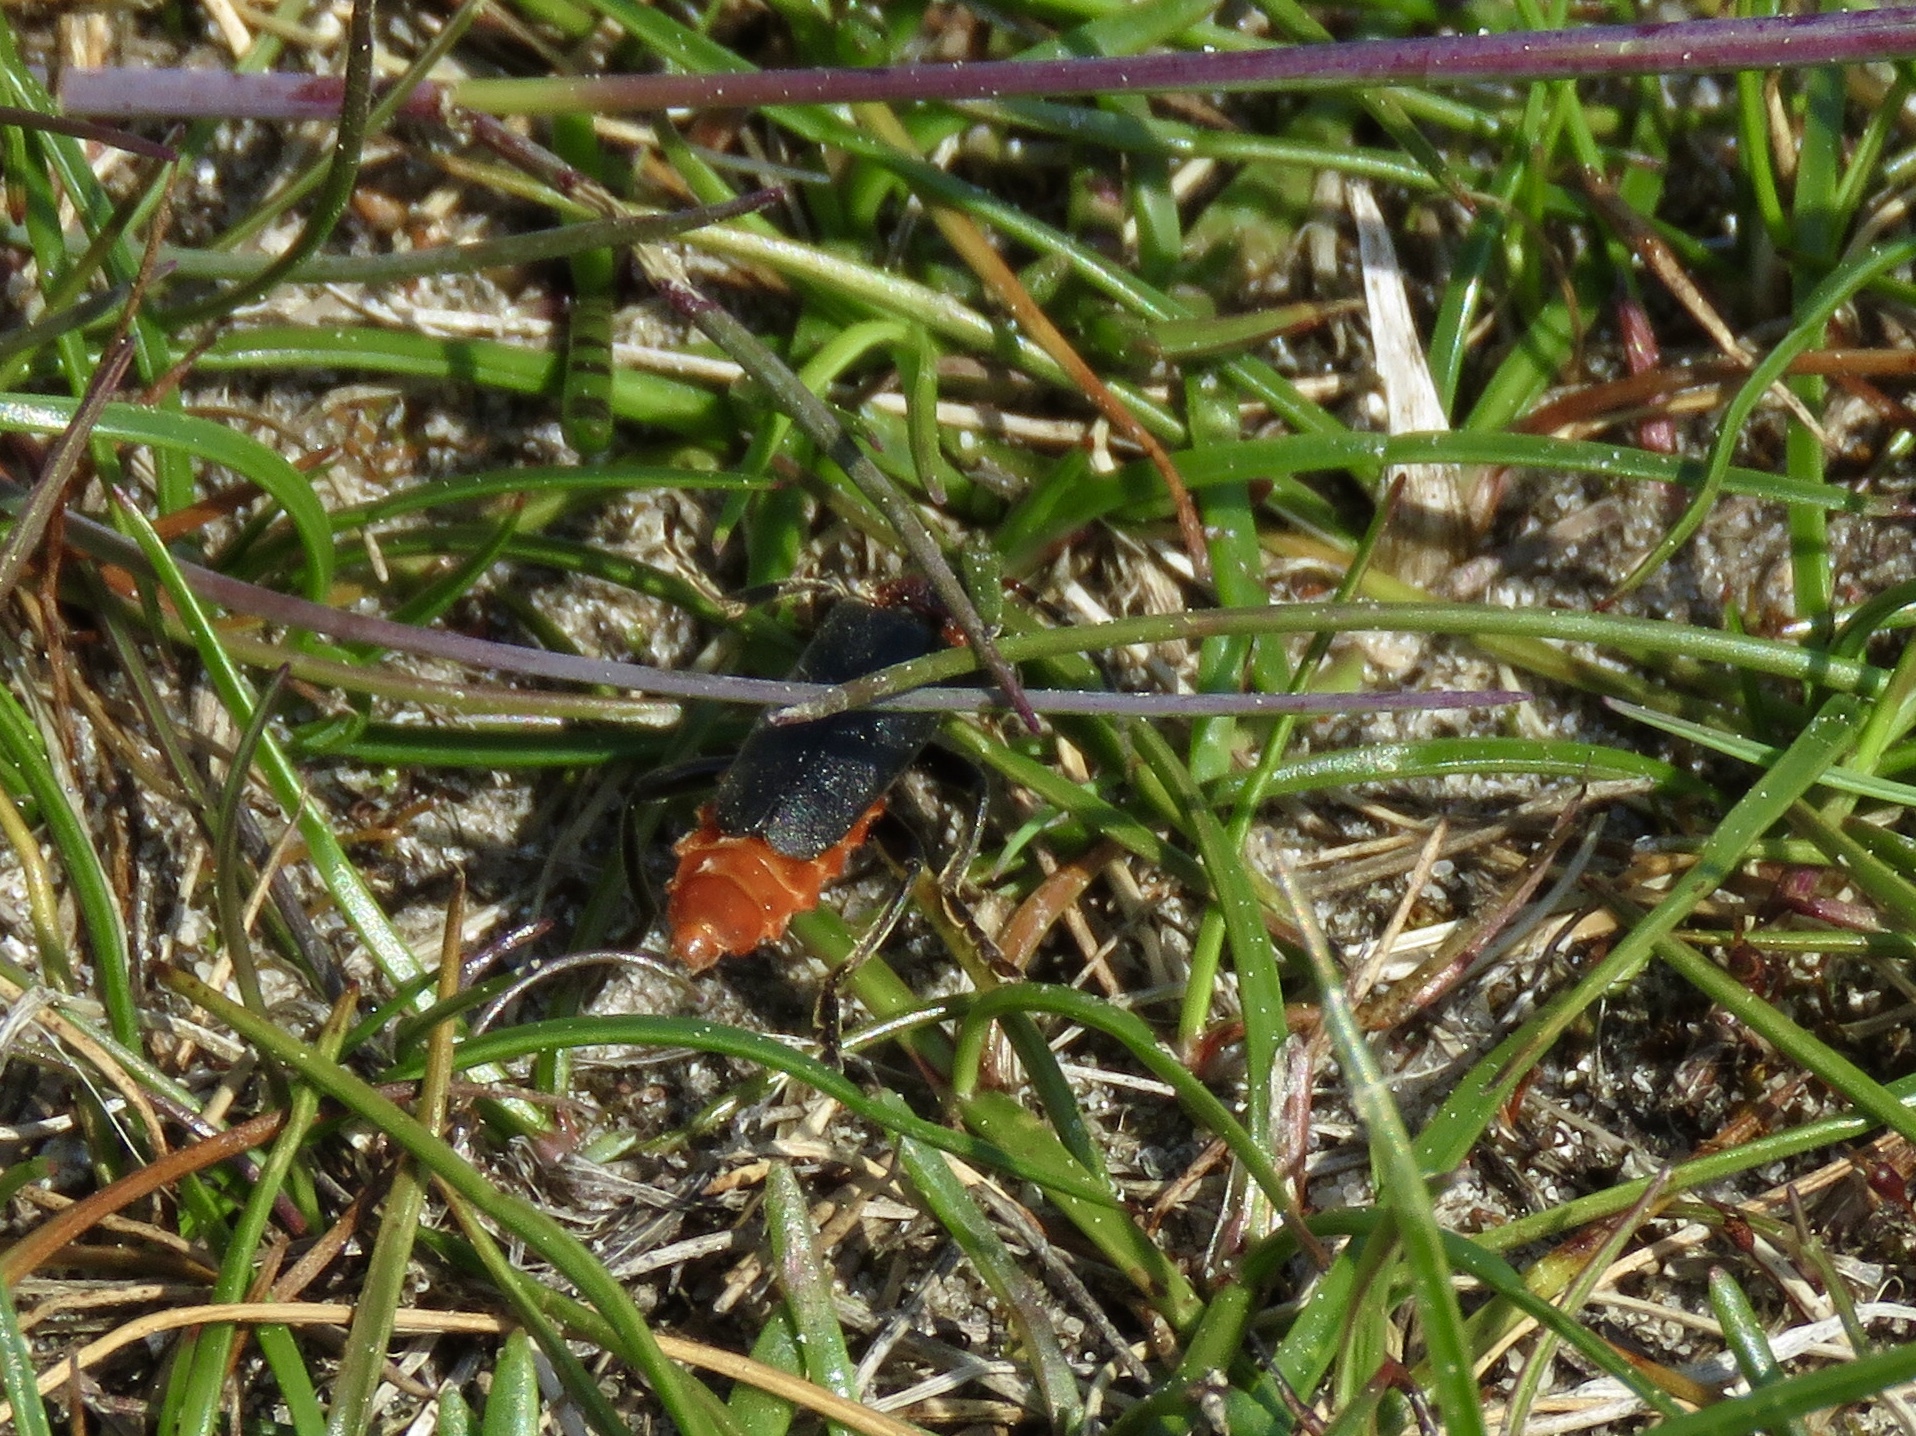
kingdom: Animalia
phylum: Arthropoda
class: Insecta
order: Coleoptera
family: Cantharidae
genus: Cantharis
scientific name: Cantharis fusca
